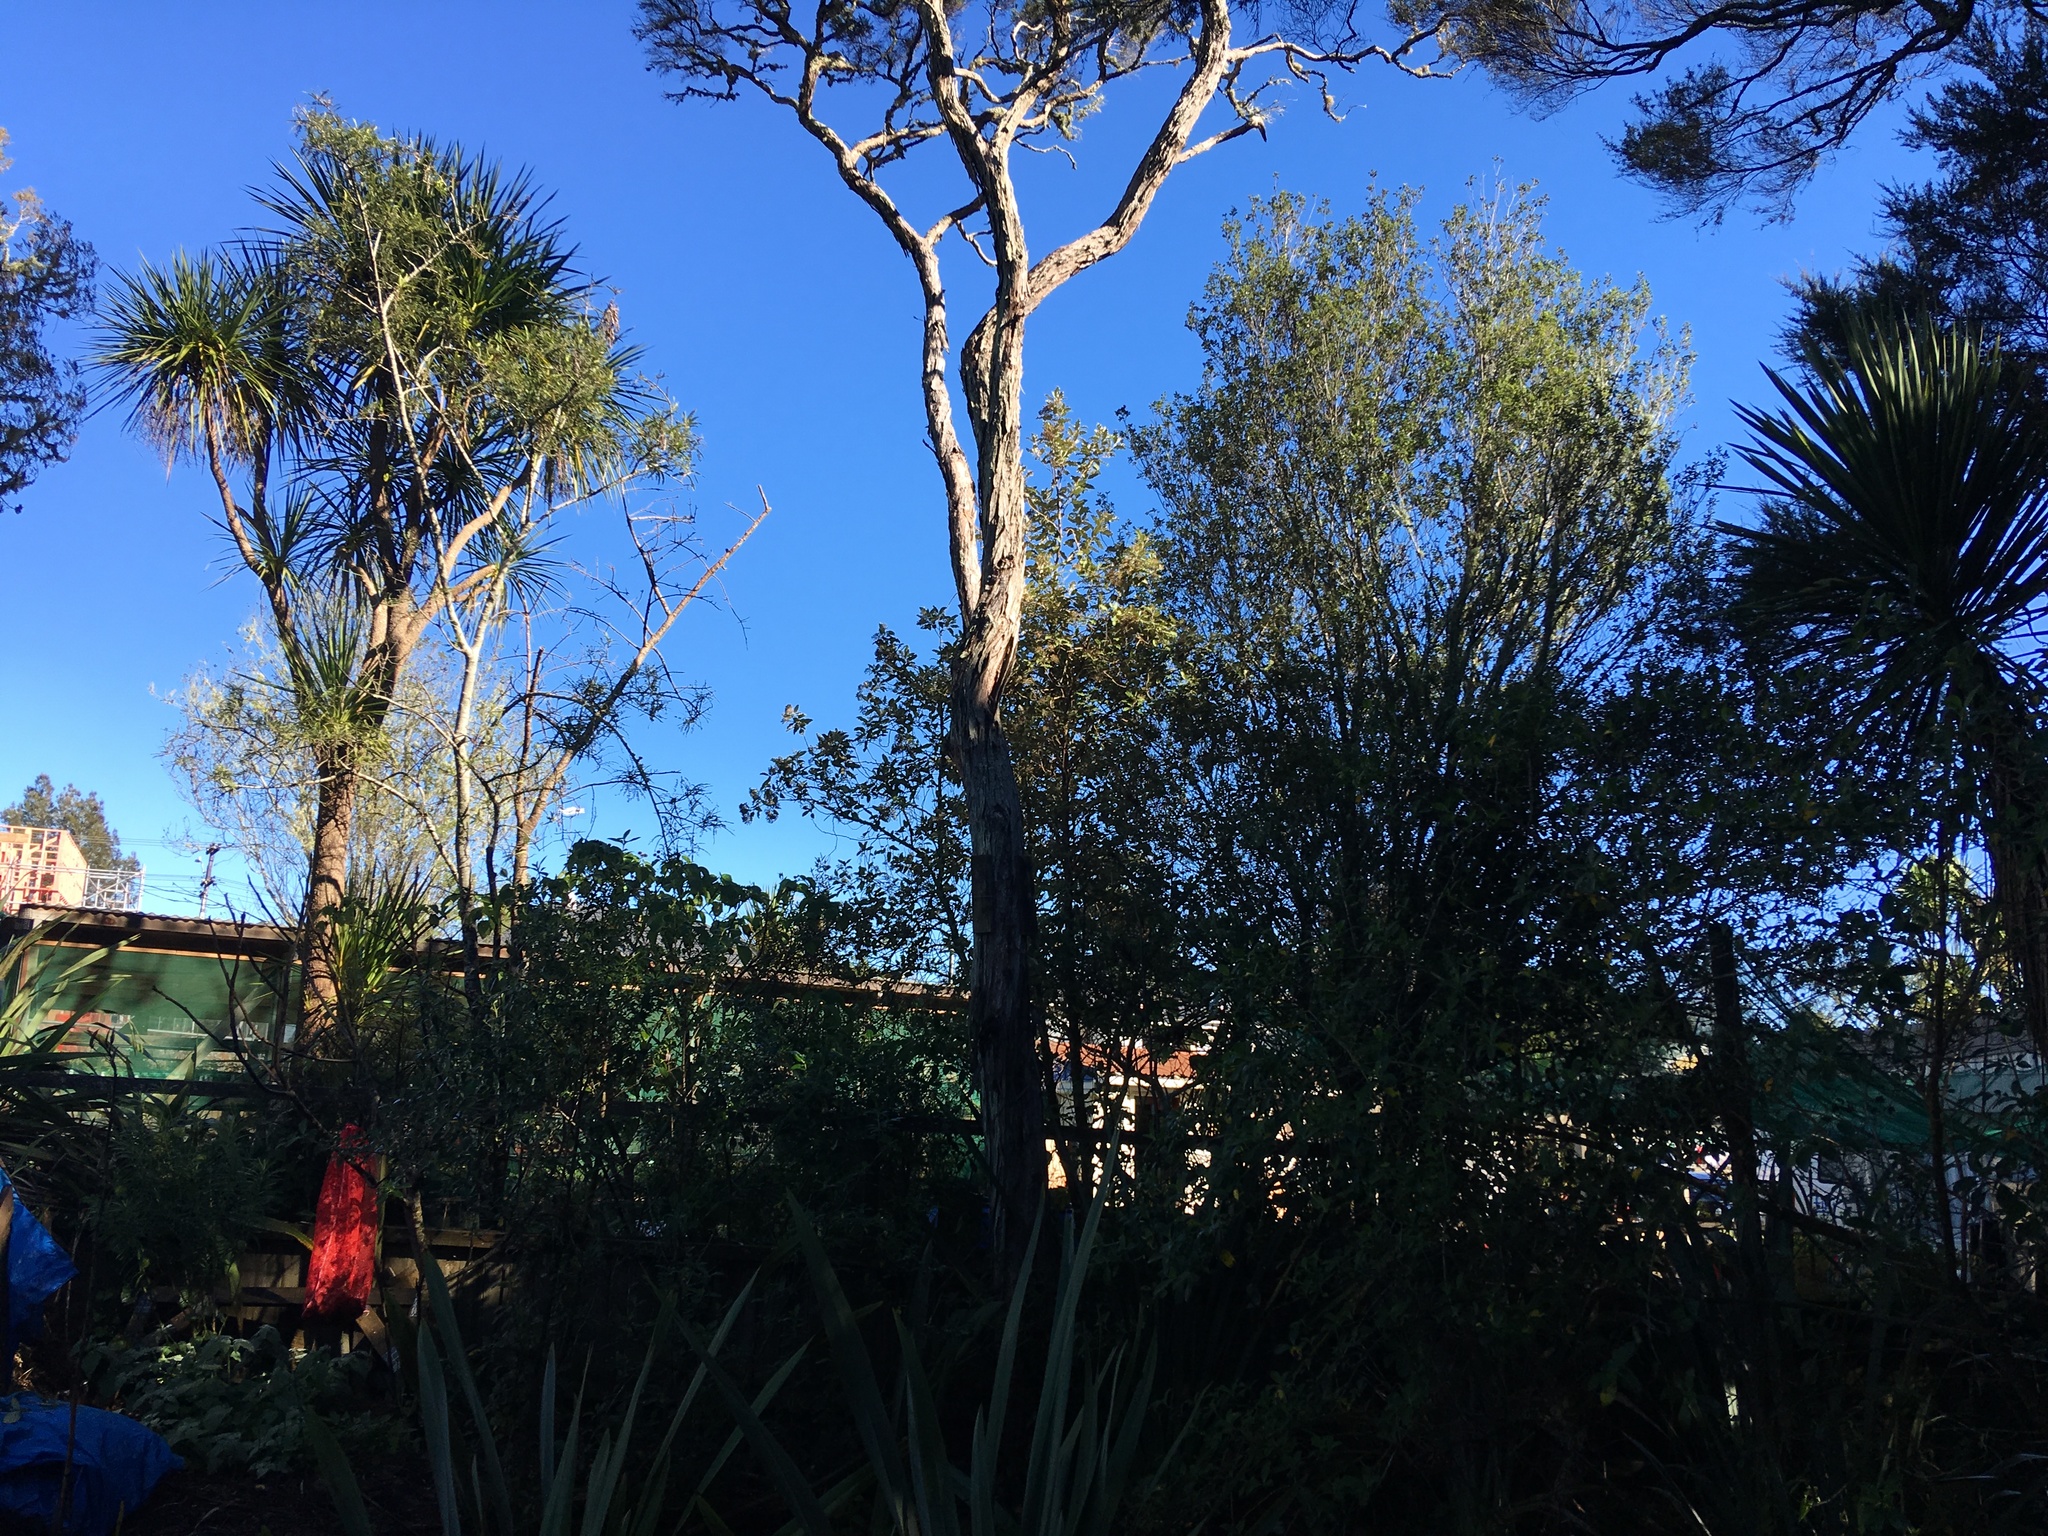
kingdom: Plantae
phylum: Tracheophyta
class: Liliopsida
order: Asparagales
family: Asparagaceae
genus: Cordyline
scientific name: Cordyline australis
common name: Cabbage-palm
